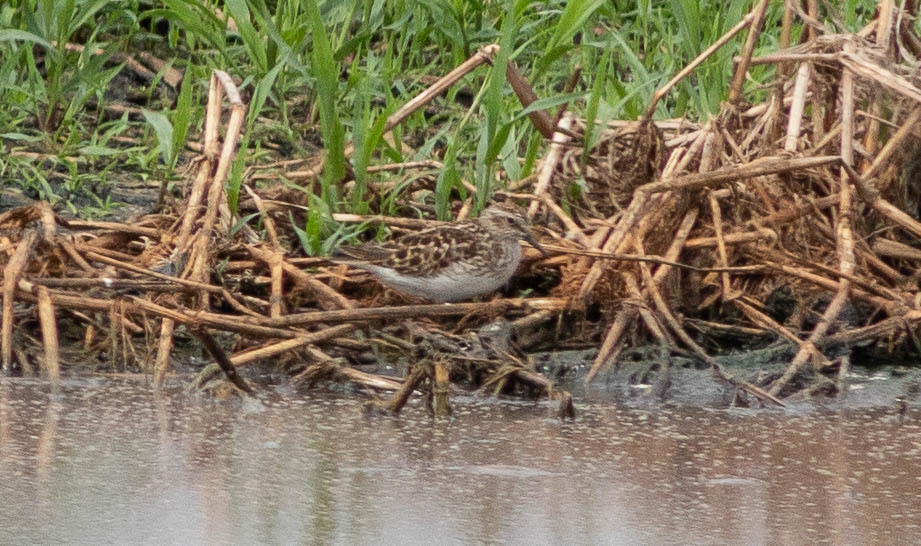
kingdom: Animalia
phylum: Chordata
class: Aves
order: Charadriiformes
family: Scolopacidae
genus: Calidris
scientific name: Calidris minutilla
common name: Least sandpiper
